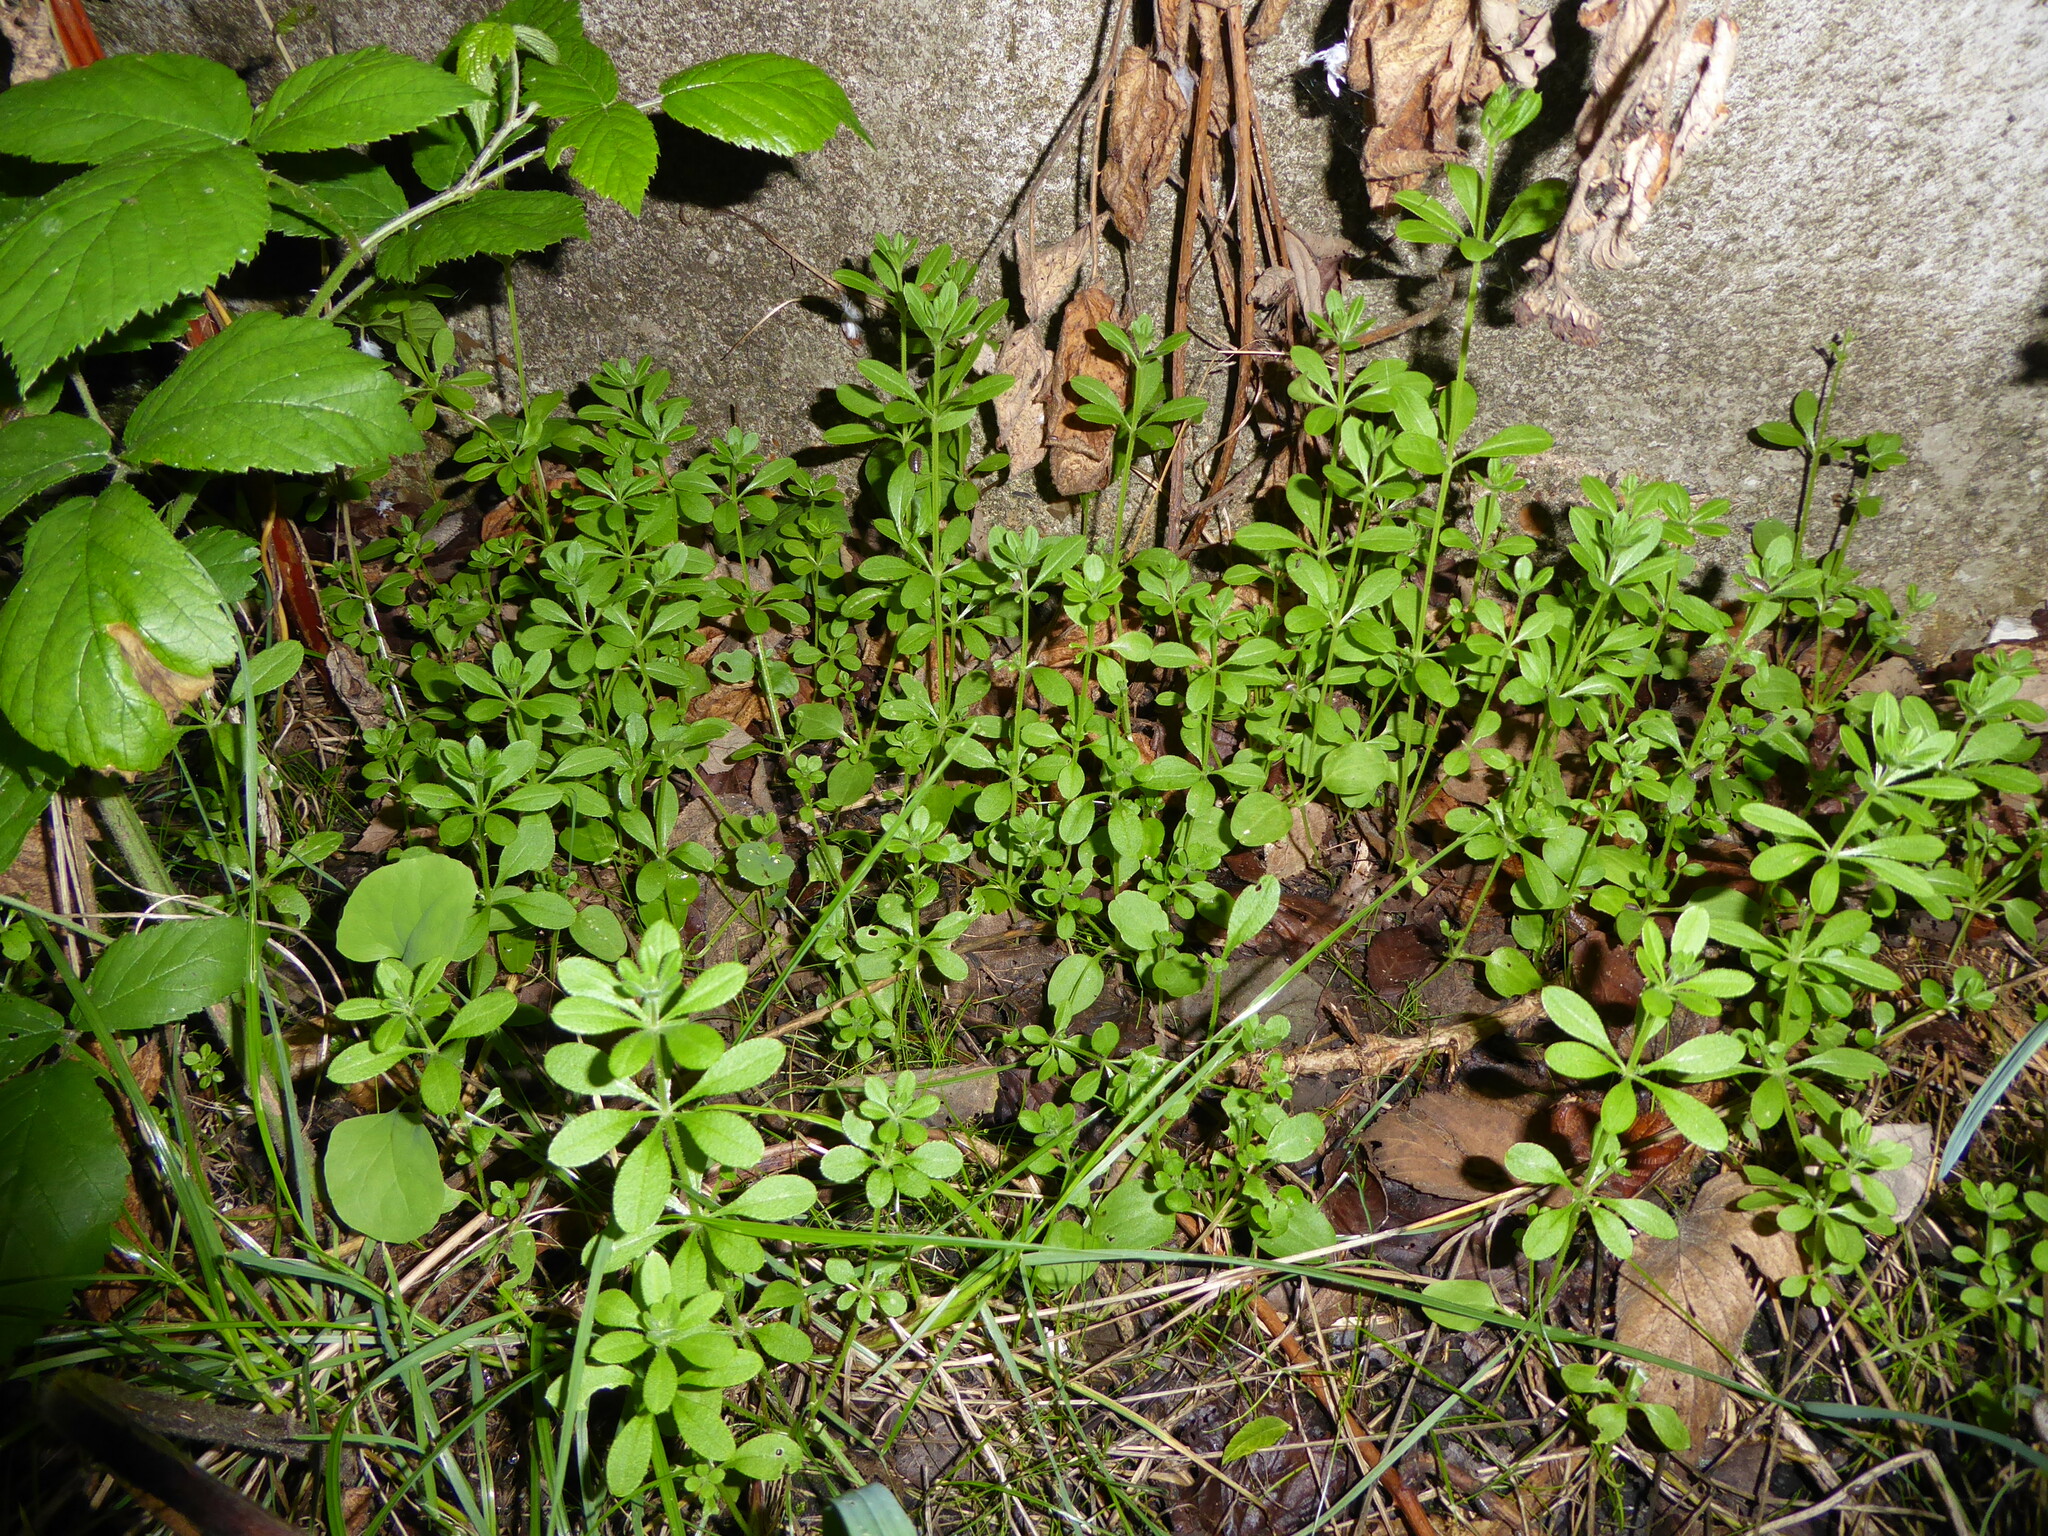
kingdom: Plantae
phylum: Tracheophyta
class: Magnoliopsida
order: Gentianales
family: Rubiaceae
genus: Galium
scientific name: Galium aparine
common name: Cleavers
